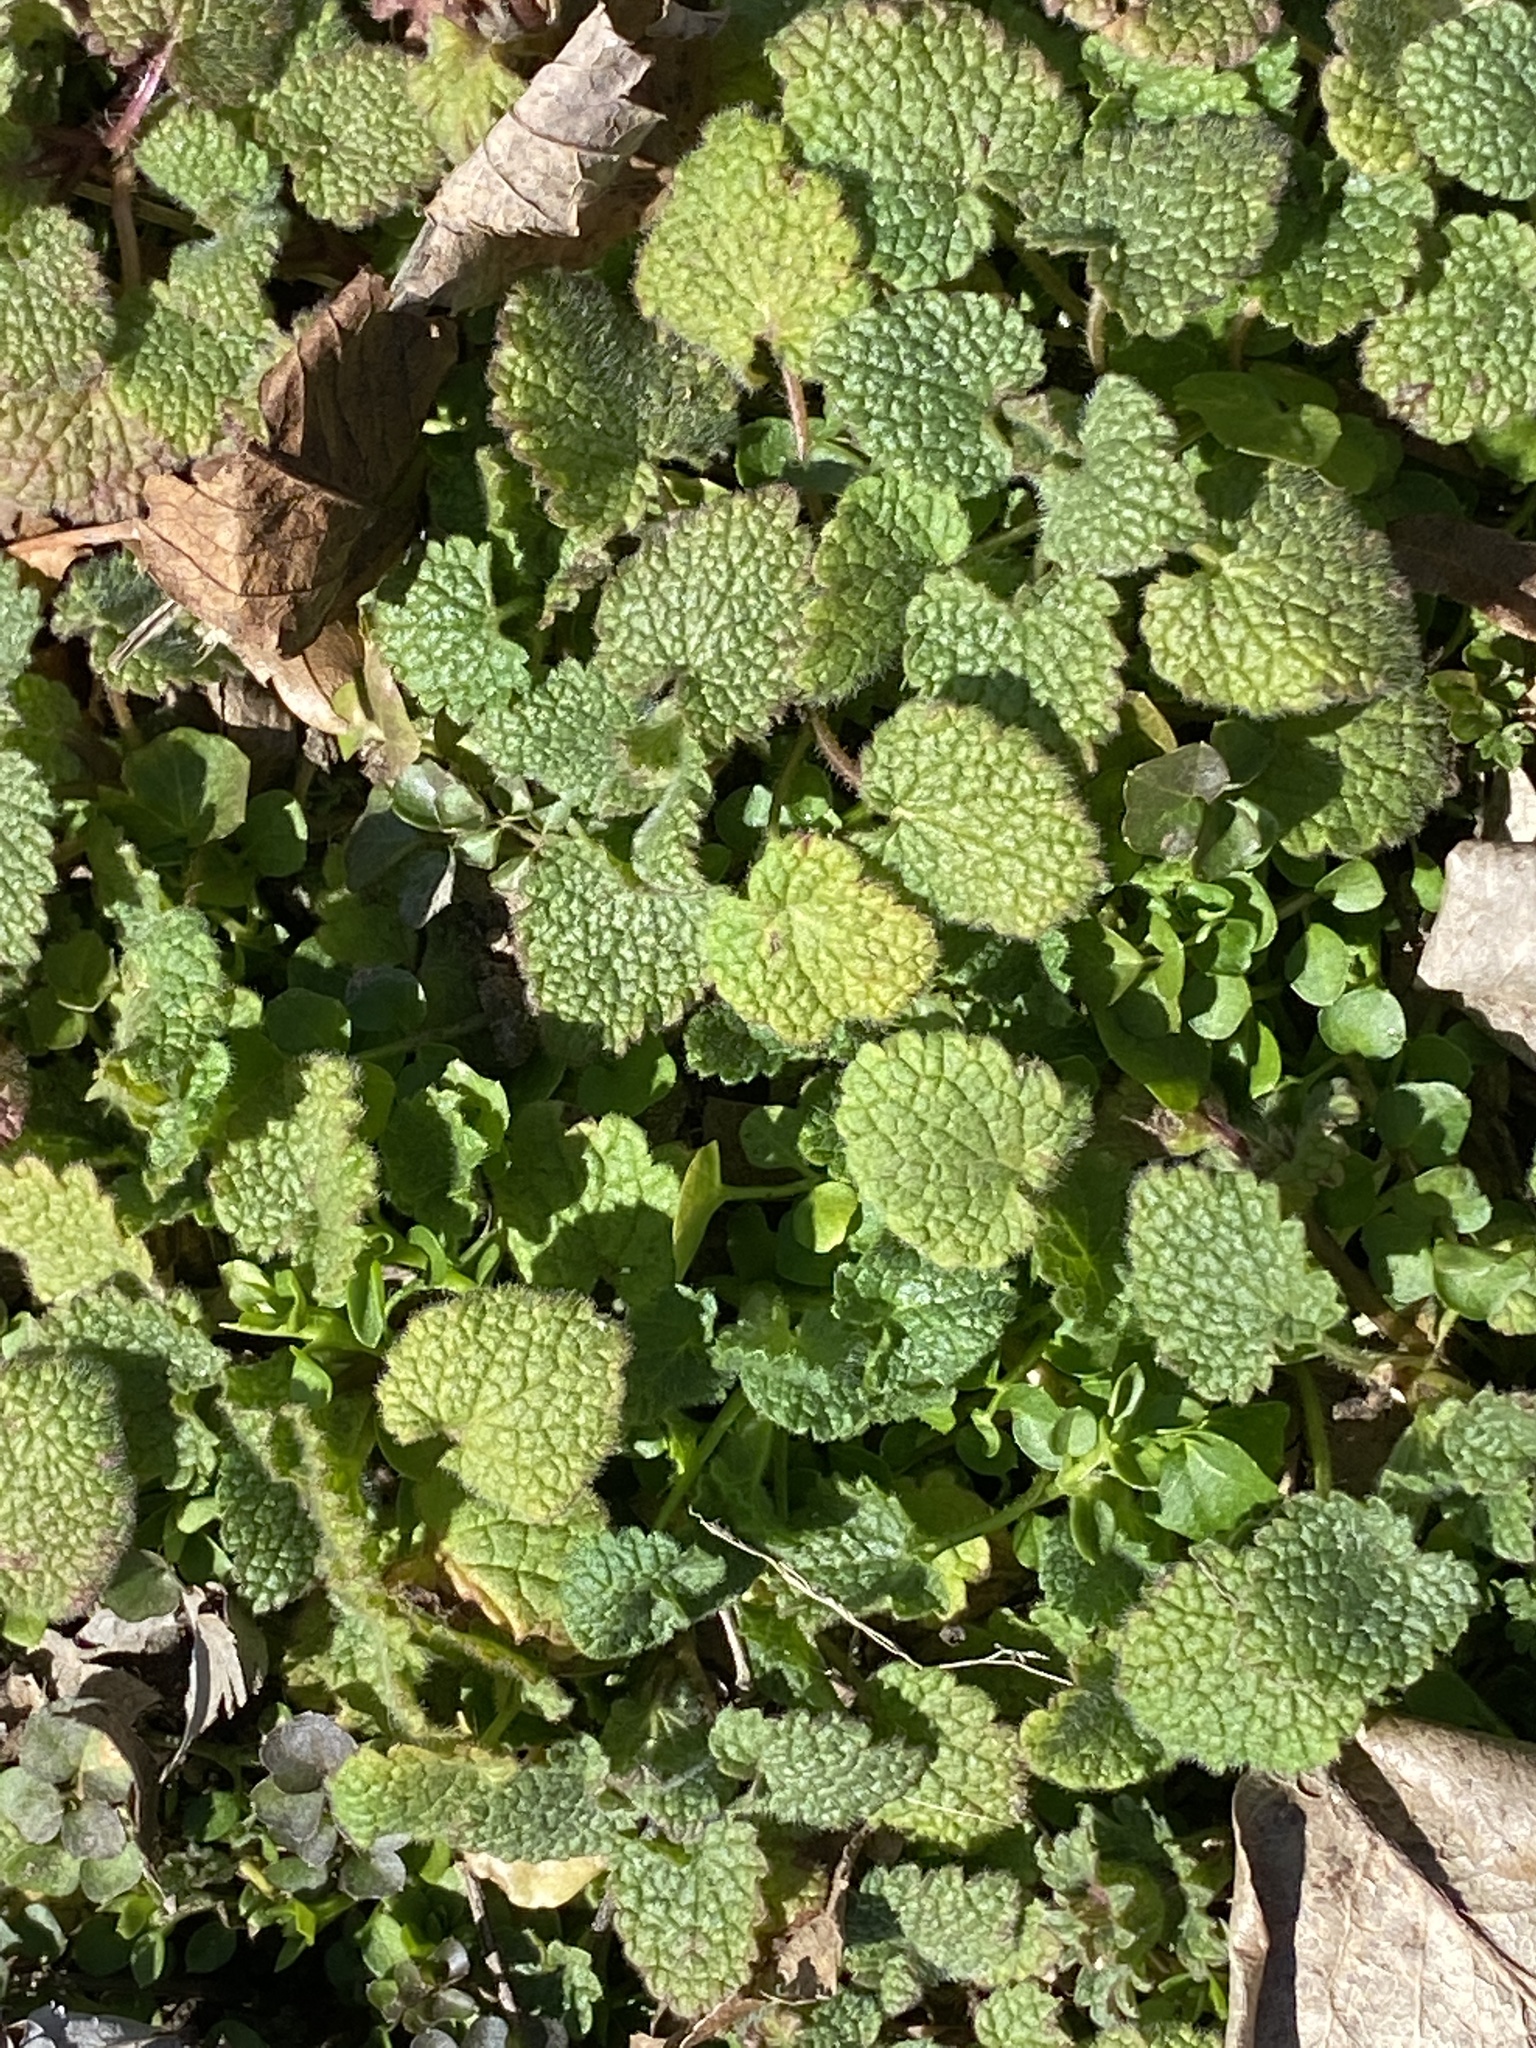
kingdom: Plantae
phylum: Tracheophyta
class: Magnoliopsida
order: Lamiales
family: Lamiaceae
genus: Lamium
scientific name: Lamium purpureum
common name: Red dead-nettle
